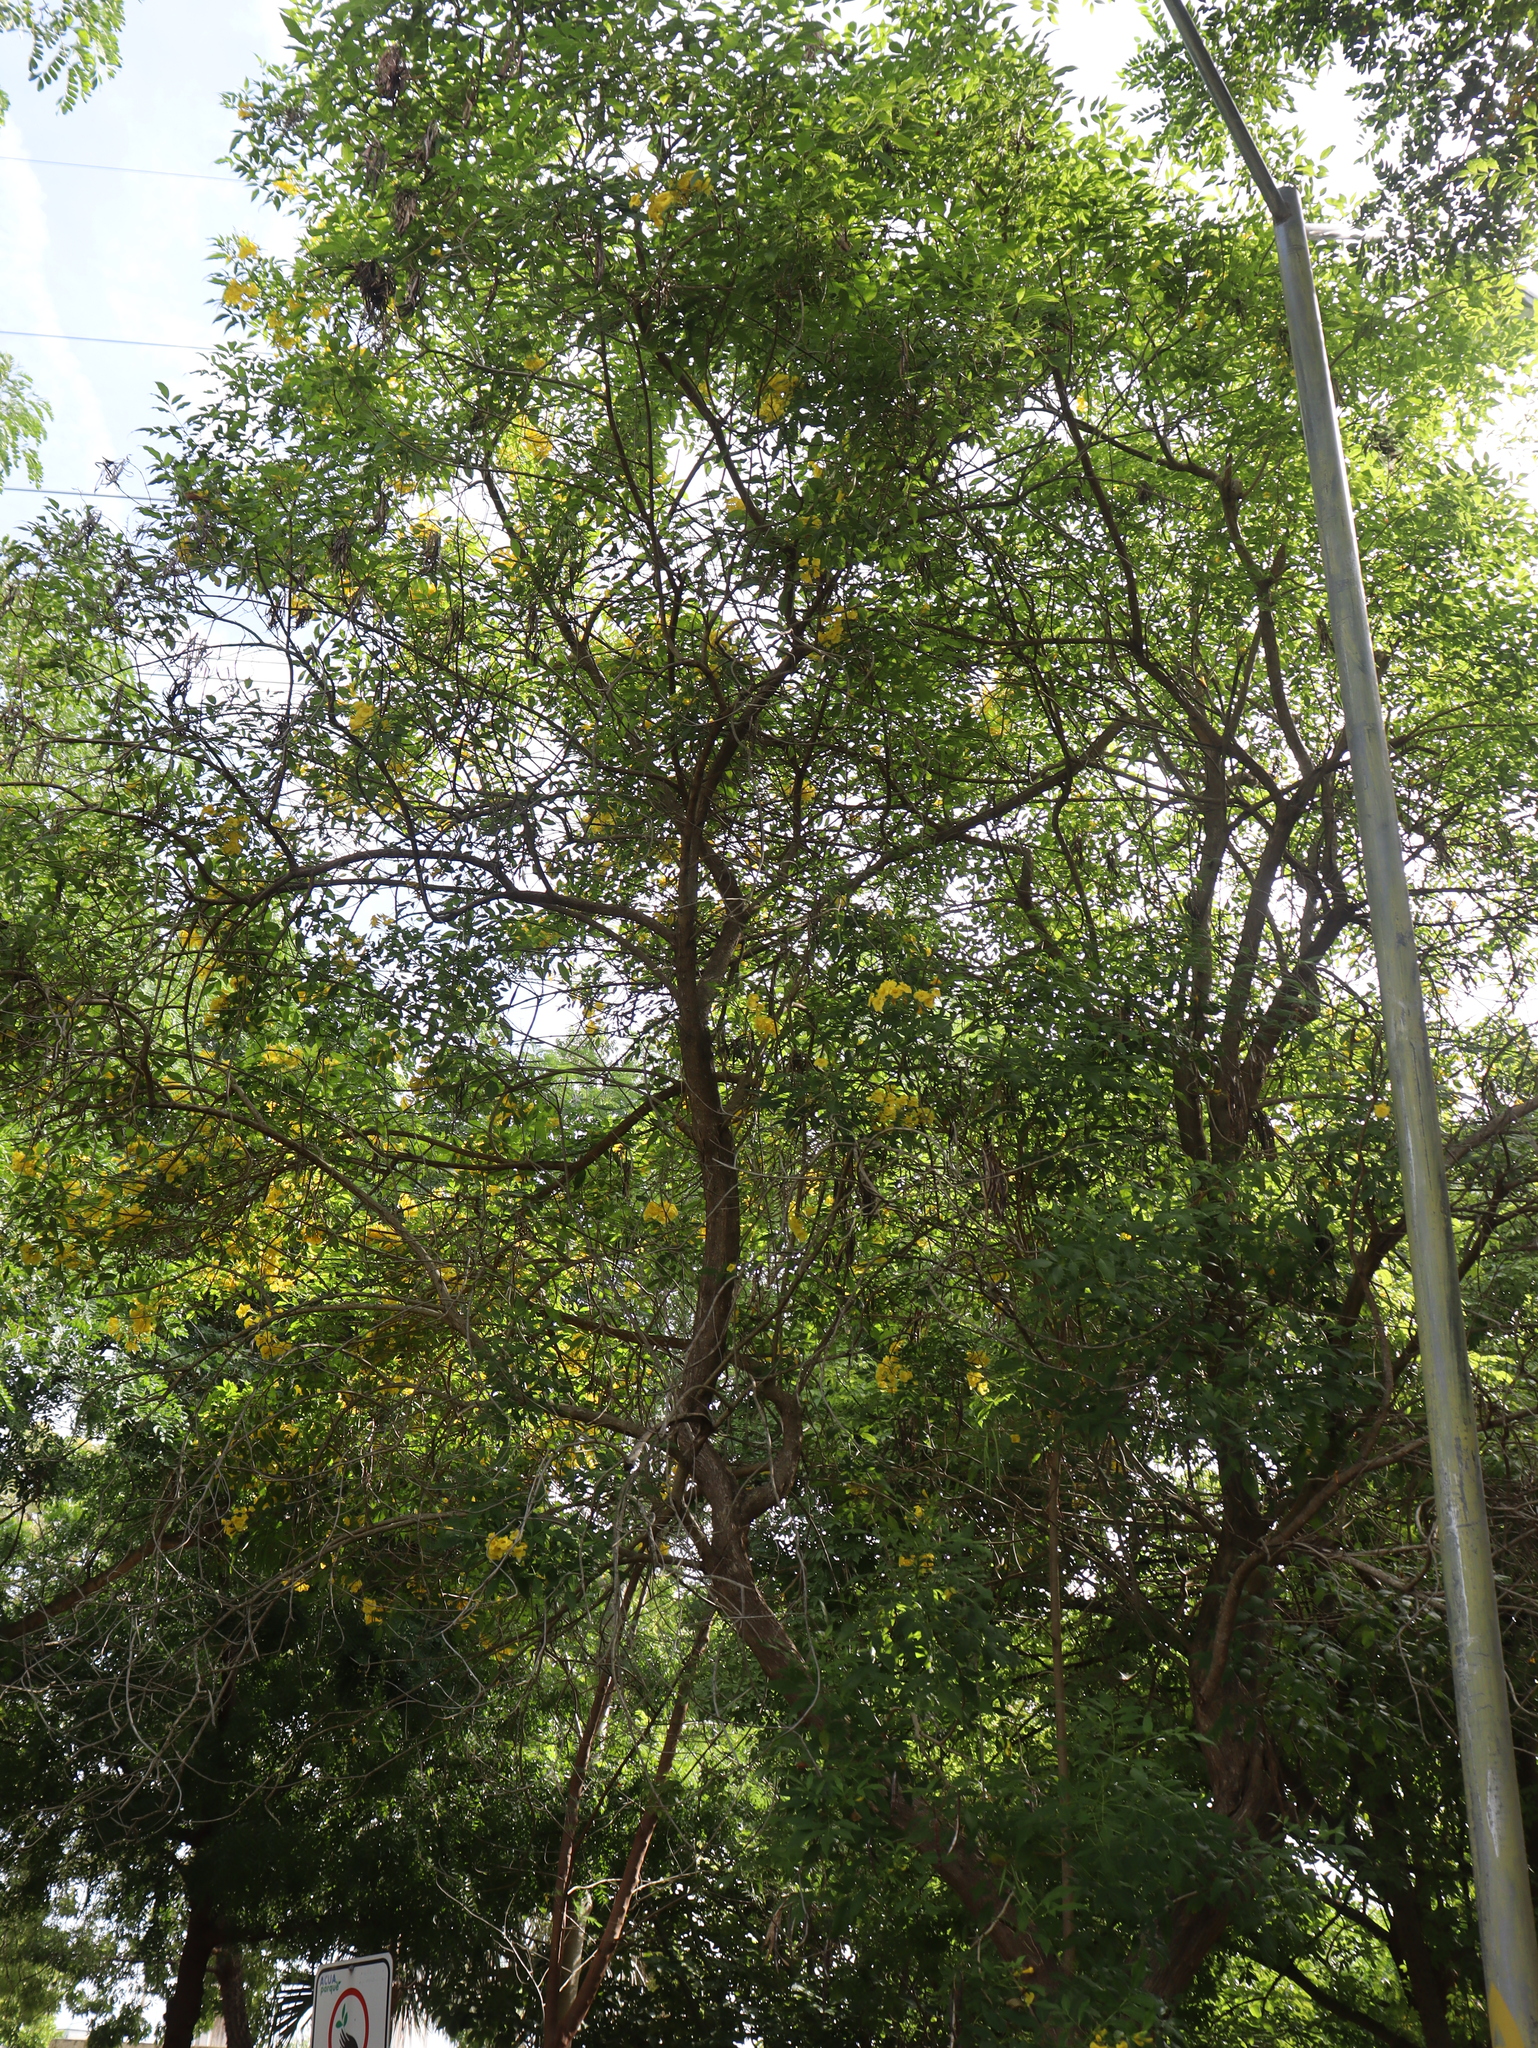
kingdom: Plantae
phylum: Tracheophyta
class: Magnoliopsida
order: Lamiales
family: Bignoniaceae
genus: Tecoma
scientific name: Tecoma stans
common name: Yellow trumpetbush
